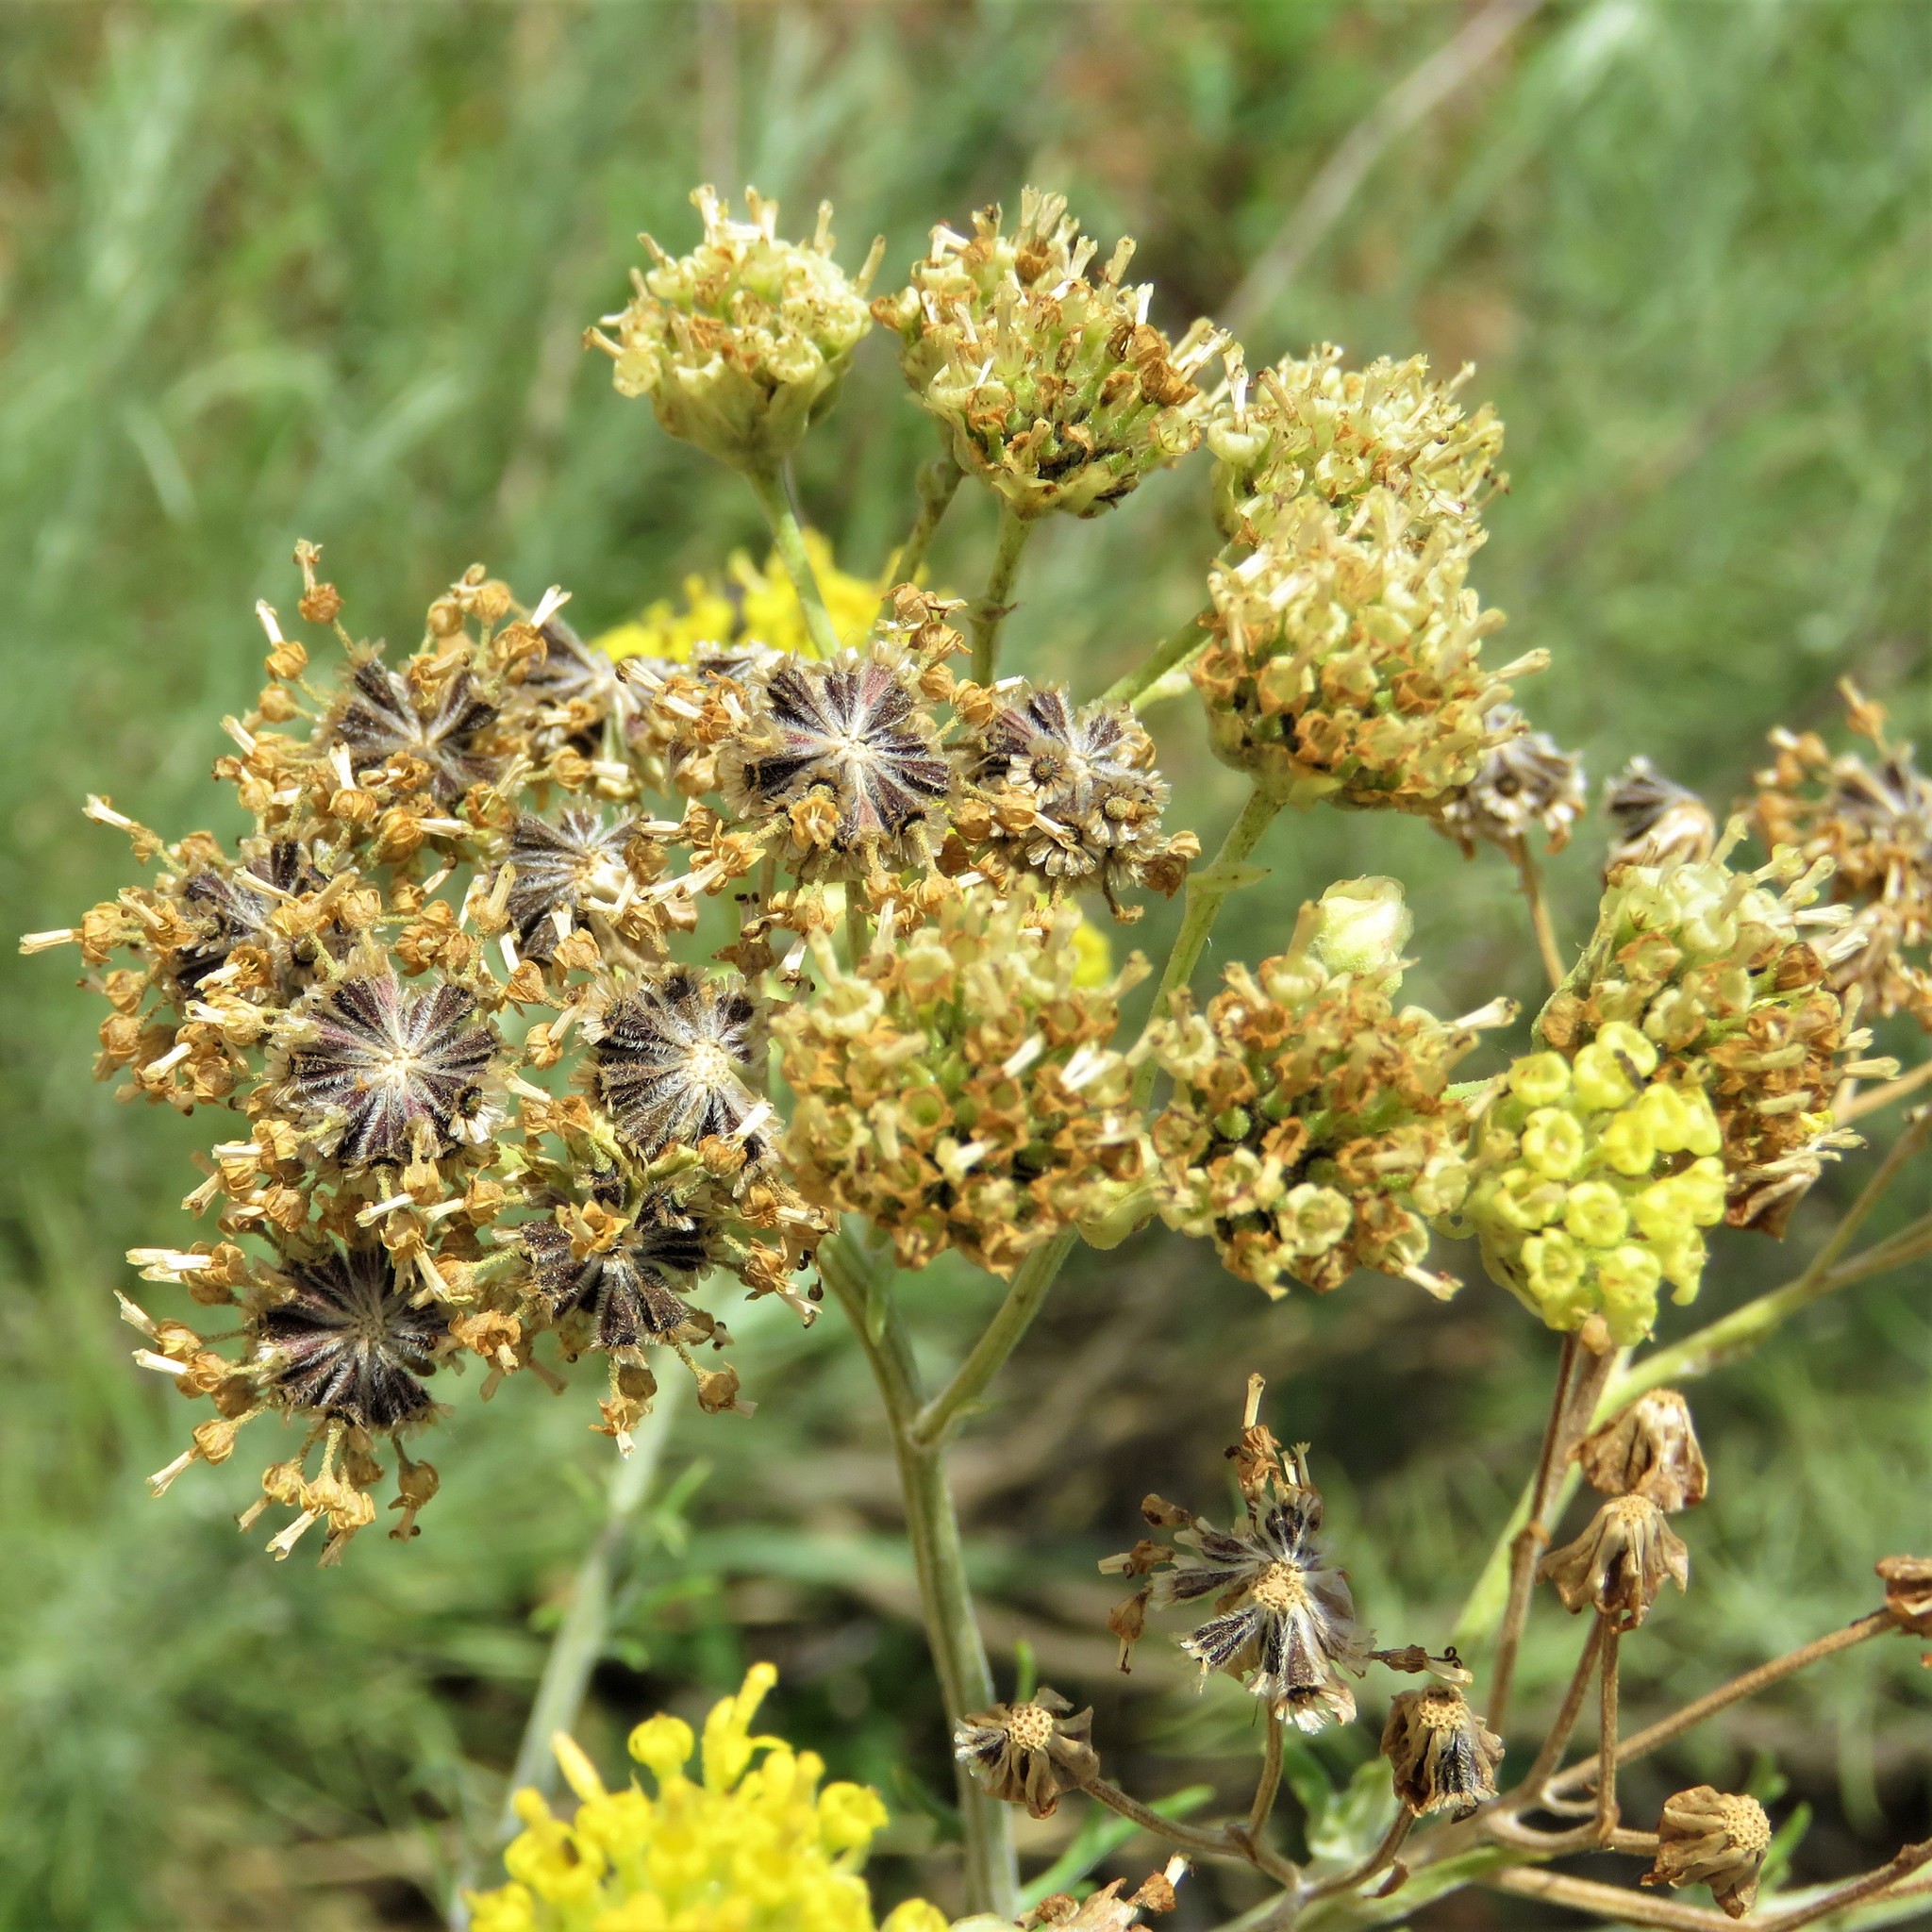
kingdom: Plantae
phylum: Tracheophyta
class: Magnoliopsida
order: Asterales
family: Asteraceae
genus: Hymenopappus
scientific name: Hymenopappus flavescens
